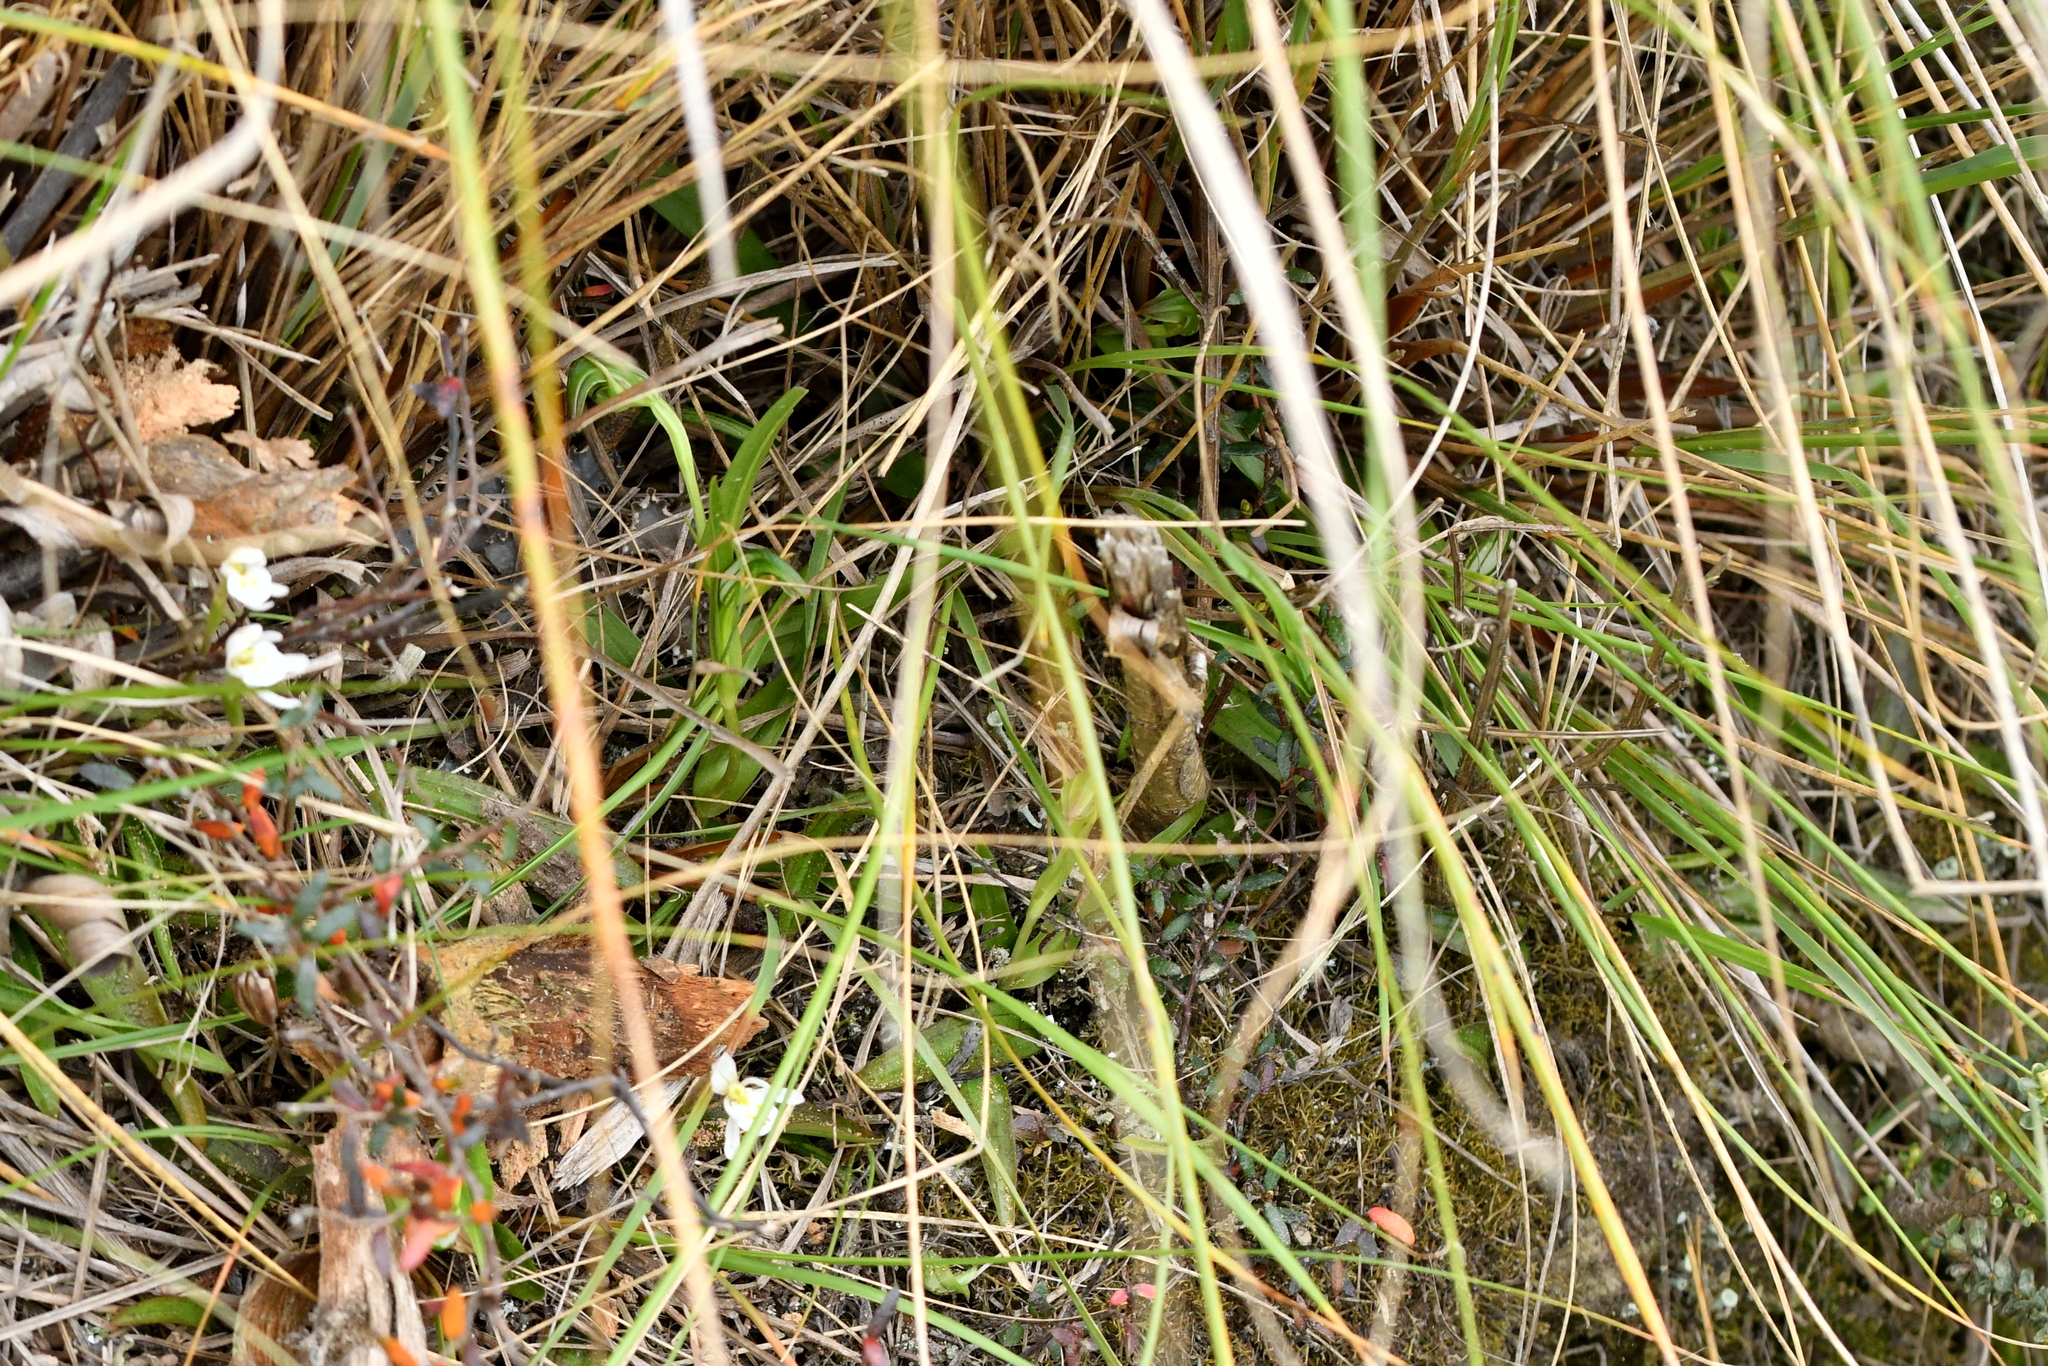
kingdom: Plantae
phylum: Tracheophyta
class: Liliopsida
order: Asparagales
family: Orchidaceae
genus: Pterostylis
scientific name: Pterostylis montana
